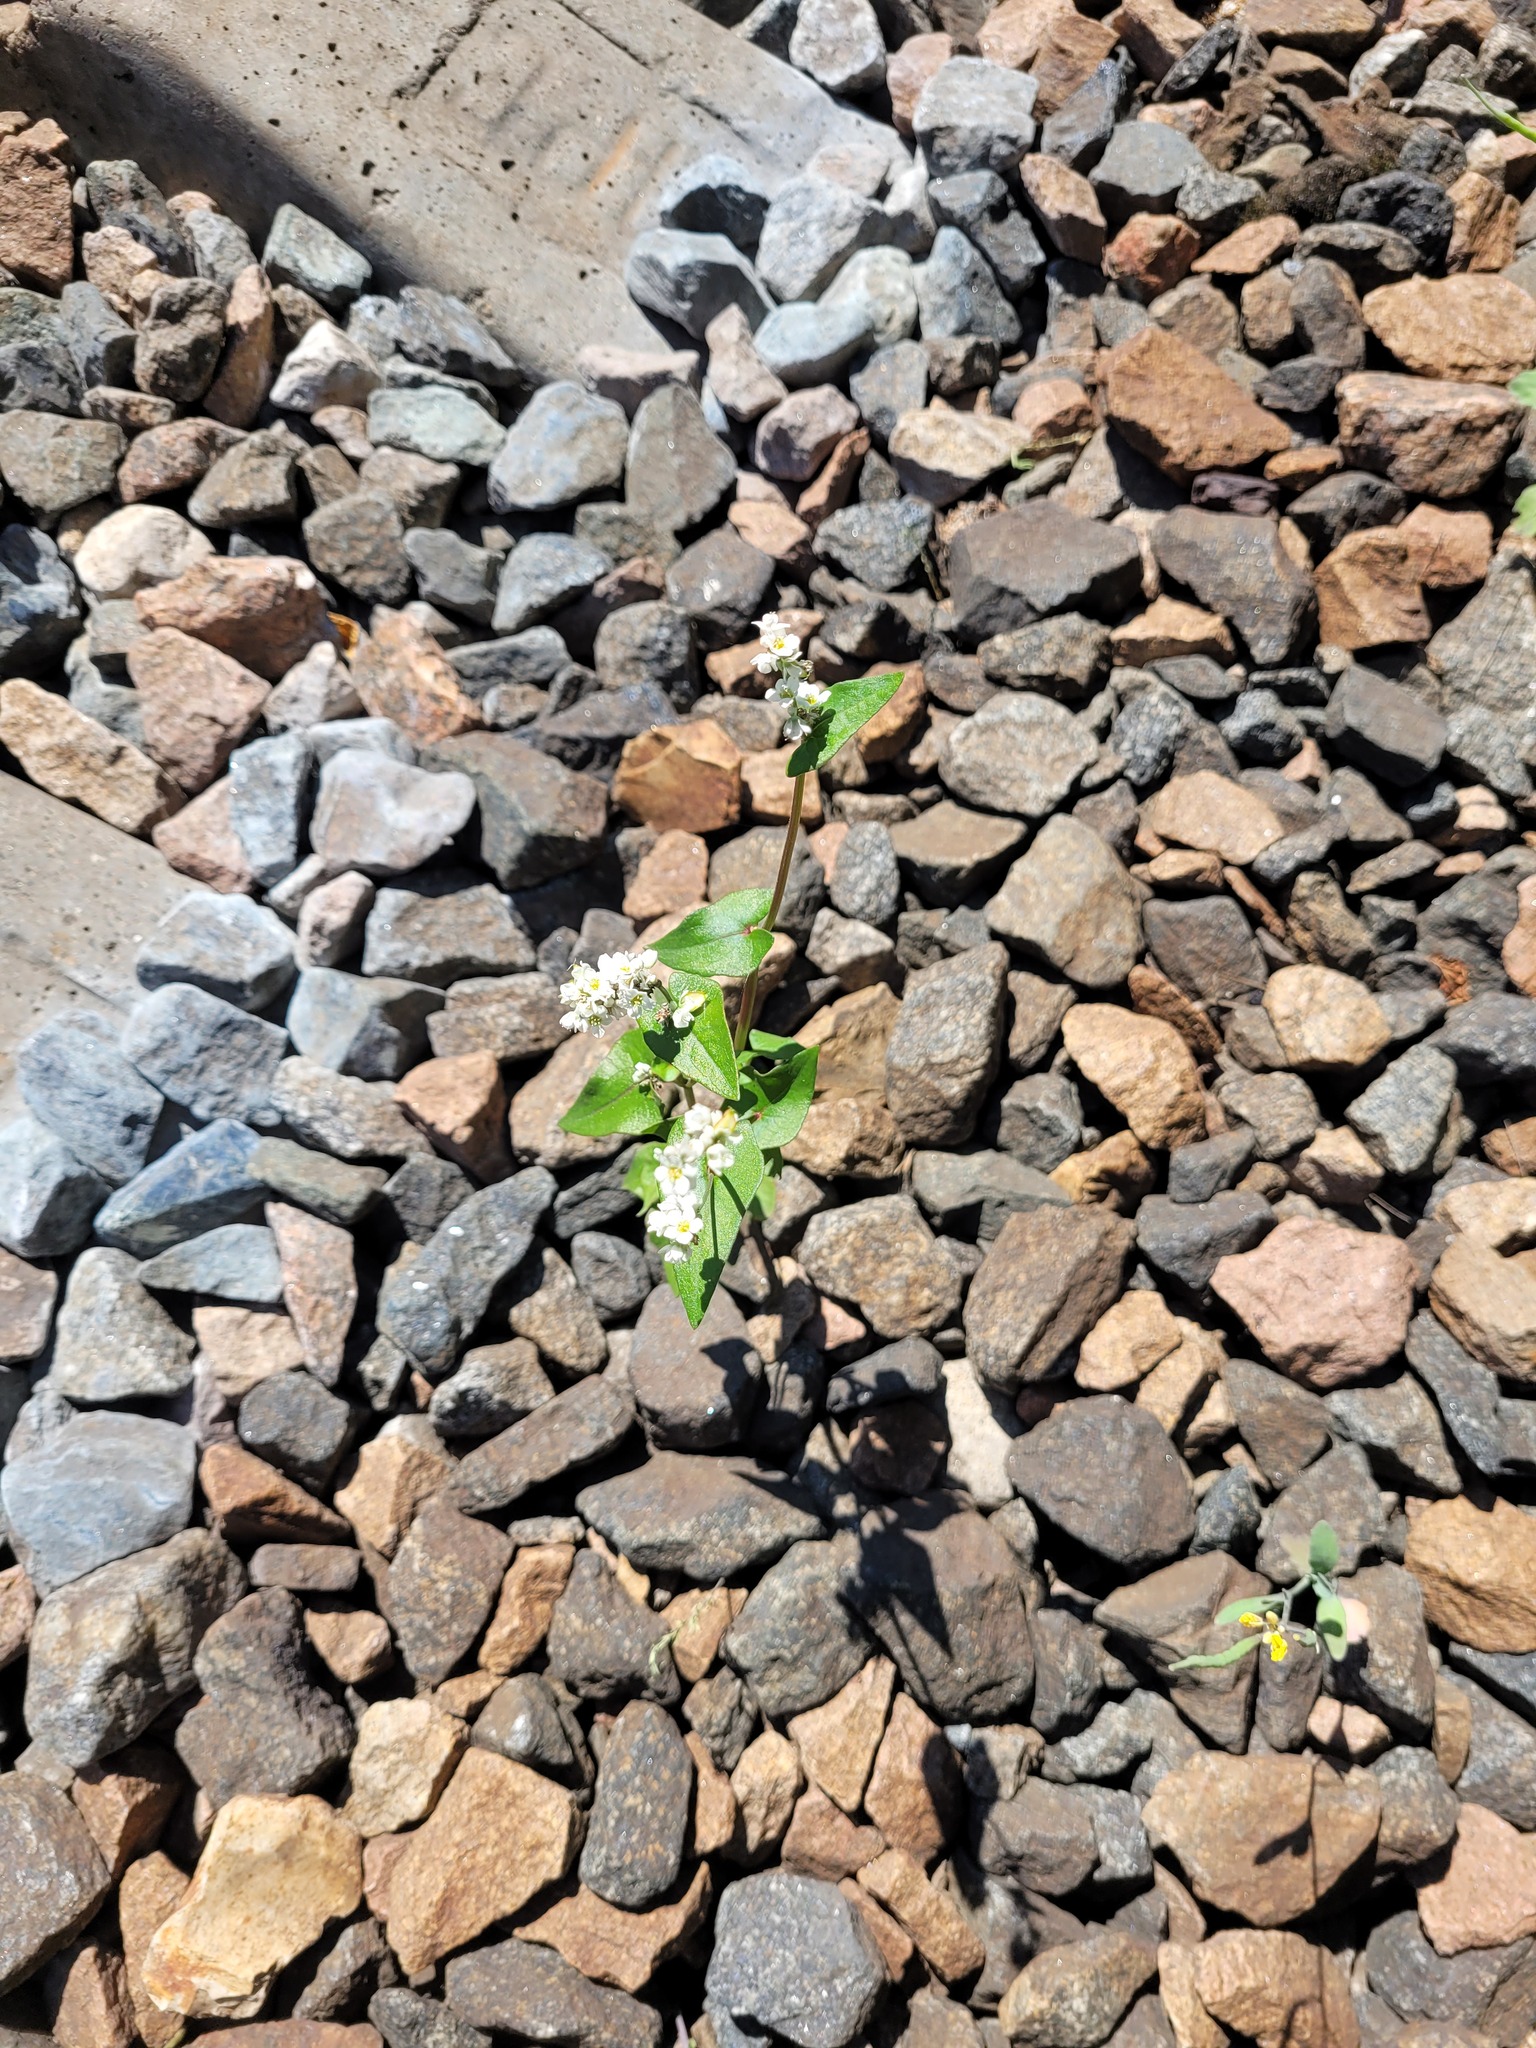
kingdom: Plantae
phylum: Tracheophyta
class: Magnoliopsida
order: Caryophyllales
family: Polygonaceae
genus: Fagopyrum
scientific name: Fagopyrum esculentum
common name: Buckwheat
